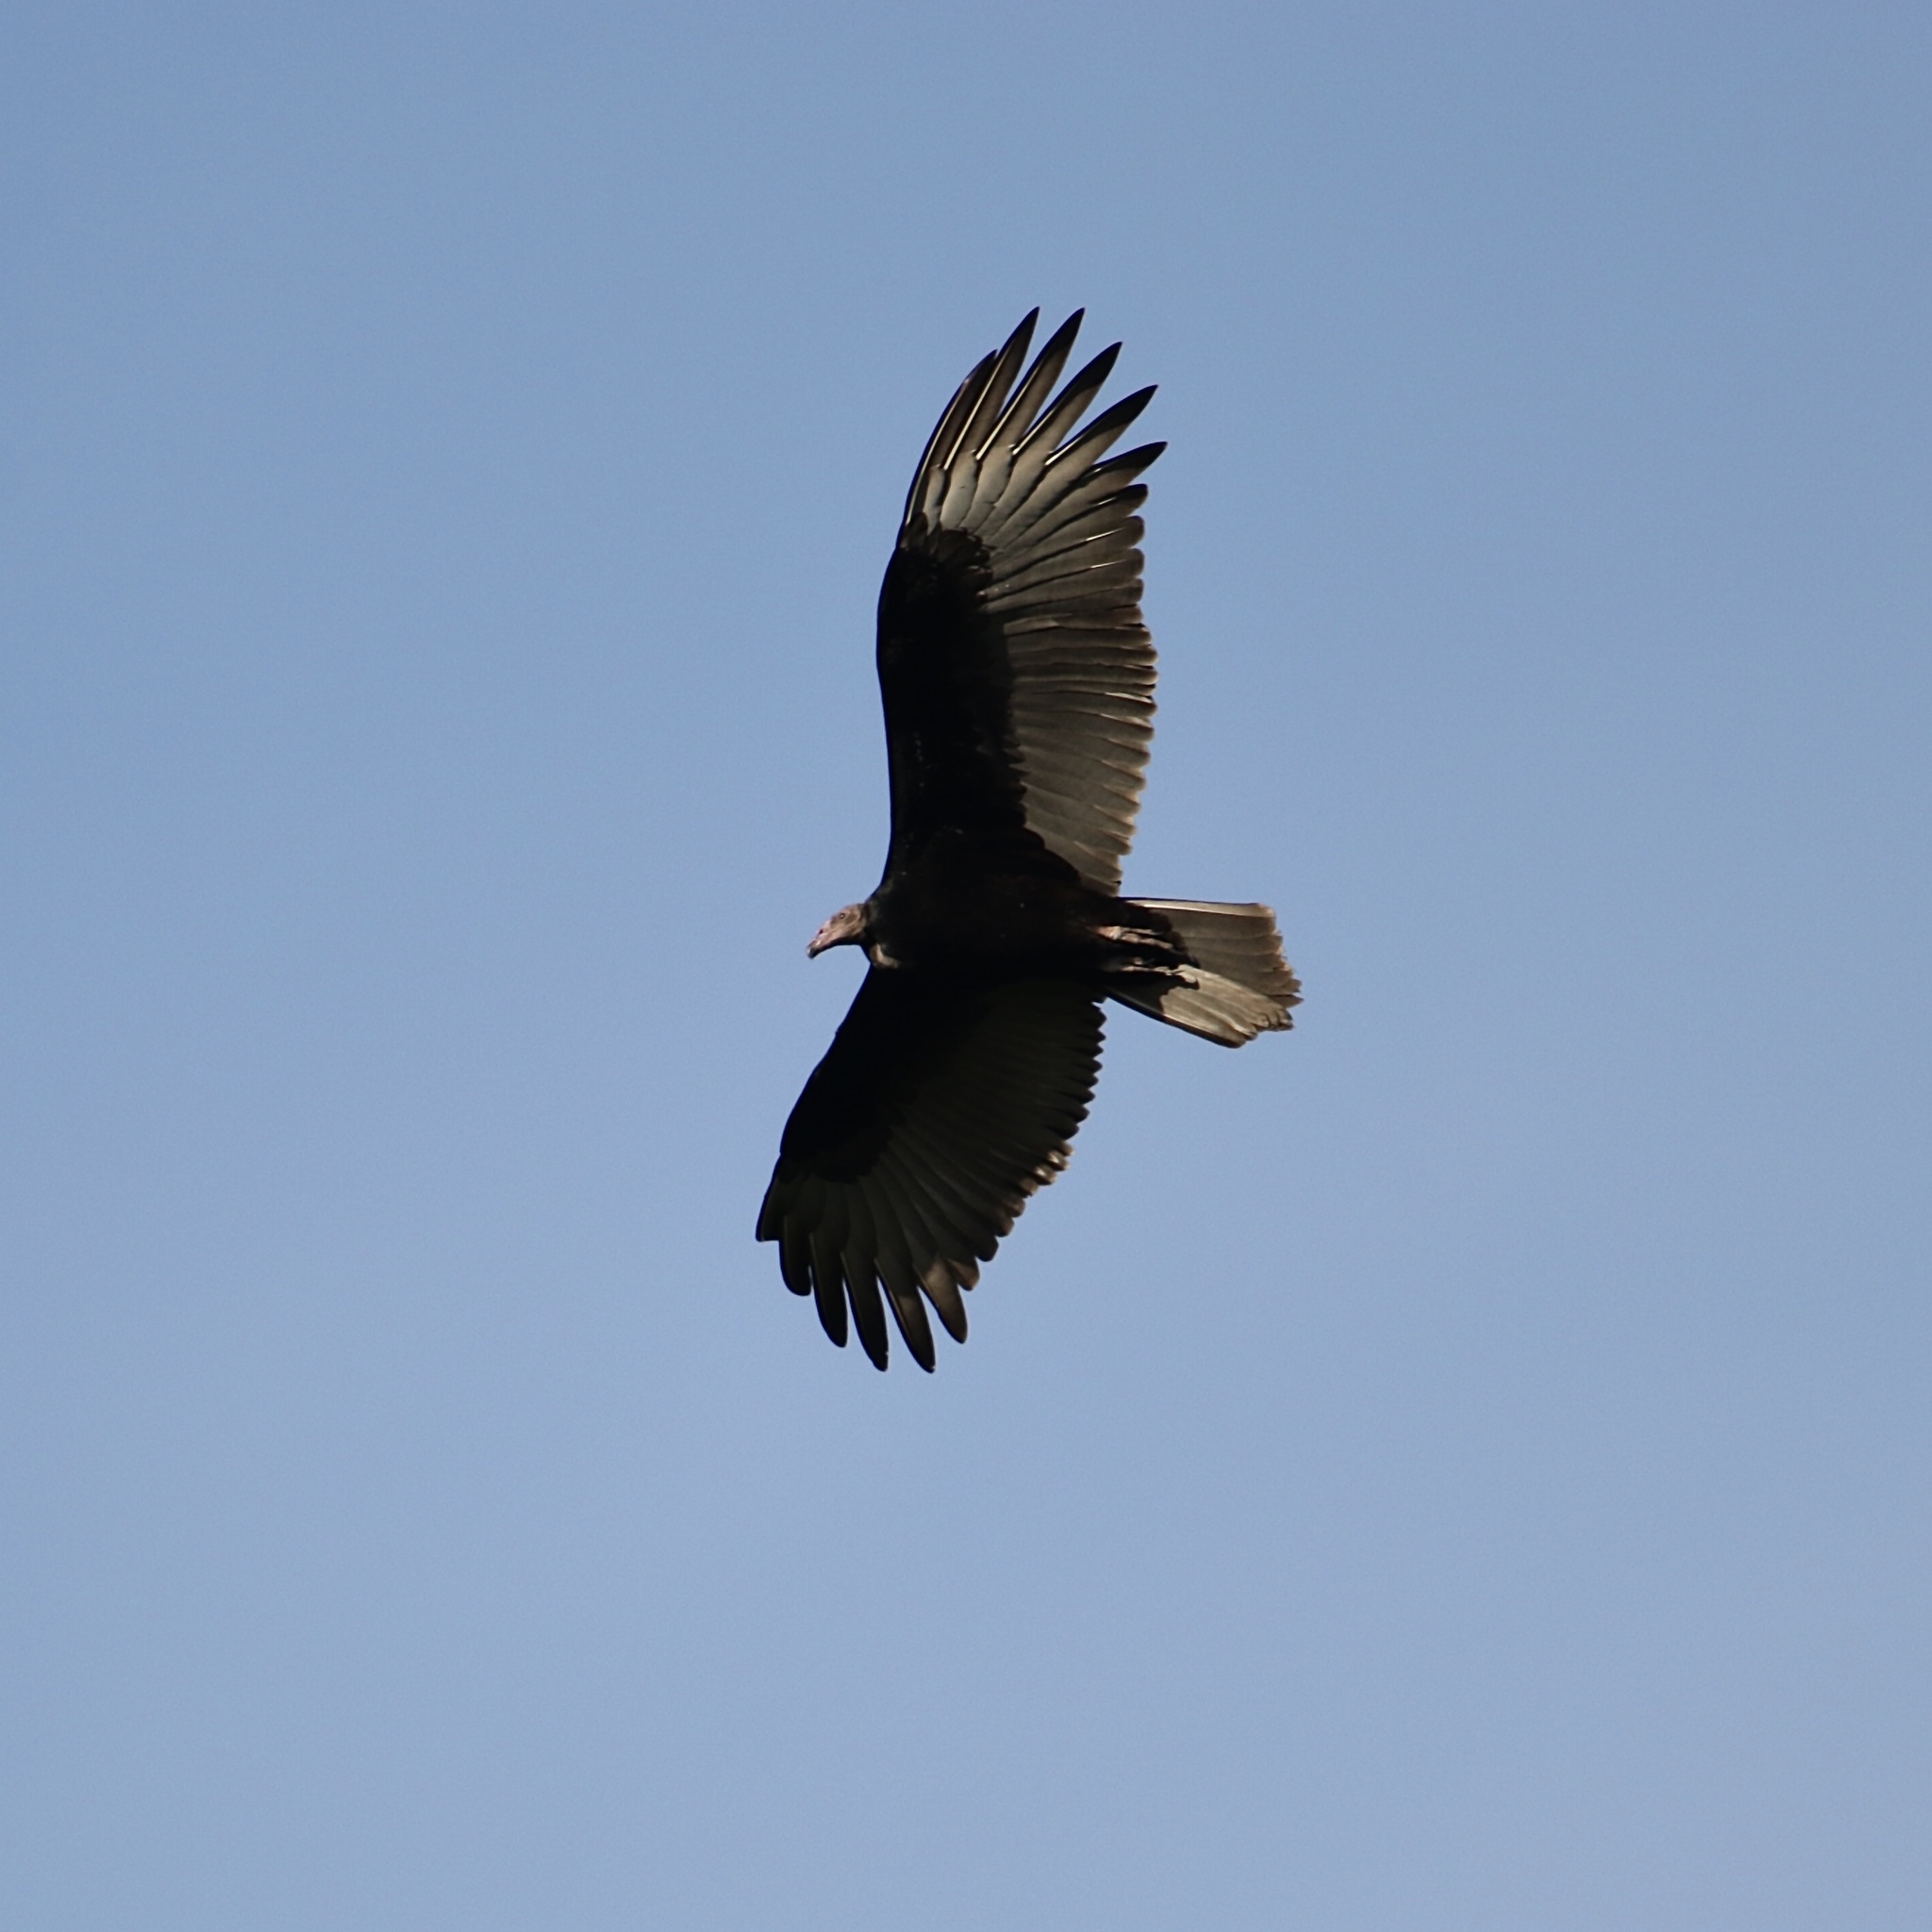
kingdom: Animalia
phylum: Chordata
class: Aves
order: Accipitriformes
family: Cathartidae
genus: Cathartes
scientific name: Cathartes aura
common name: Turkey vulture
